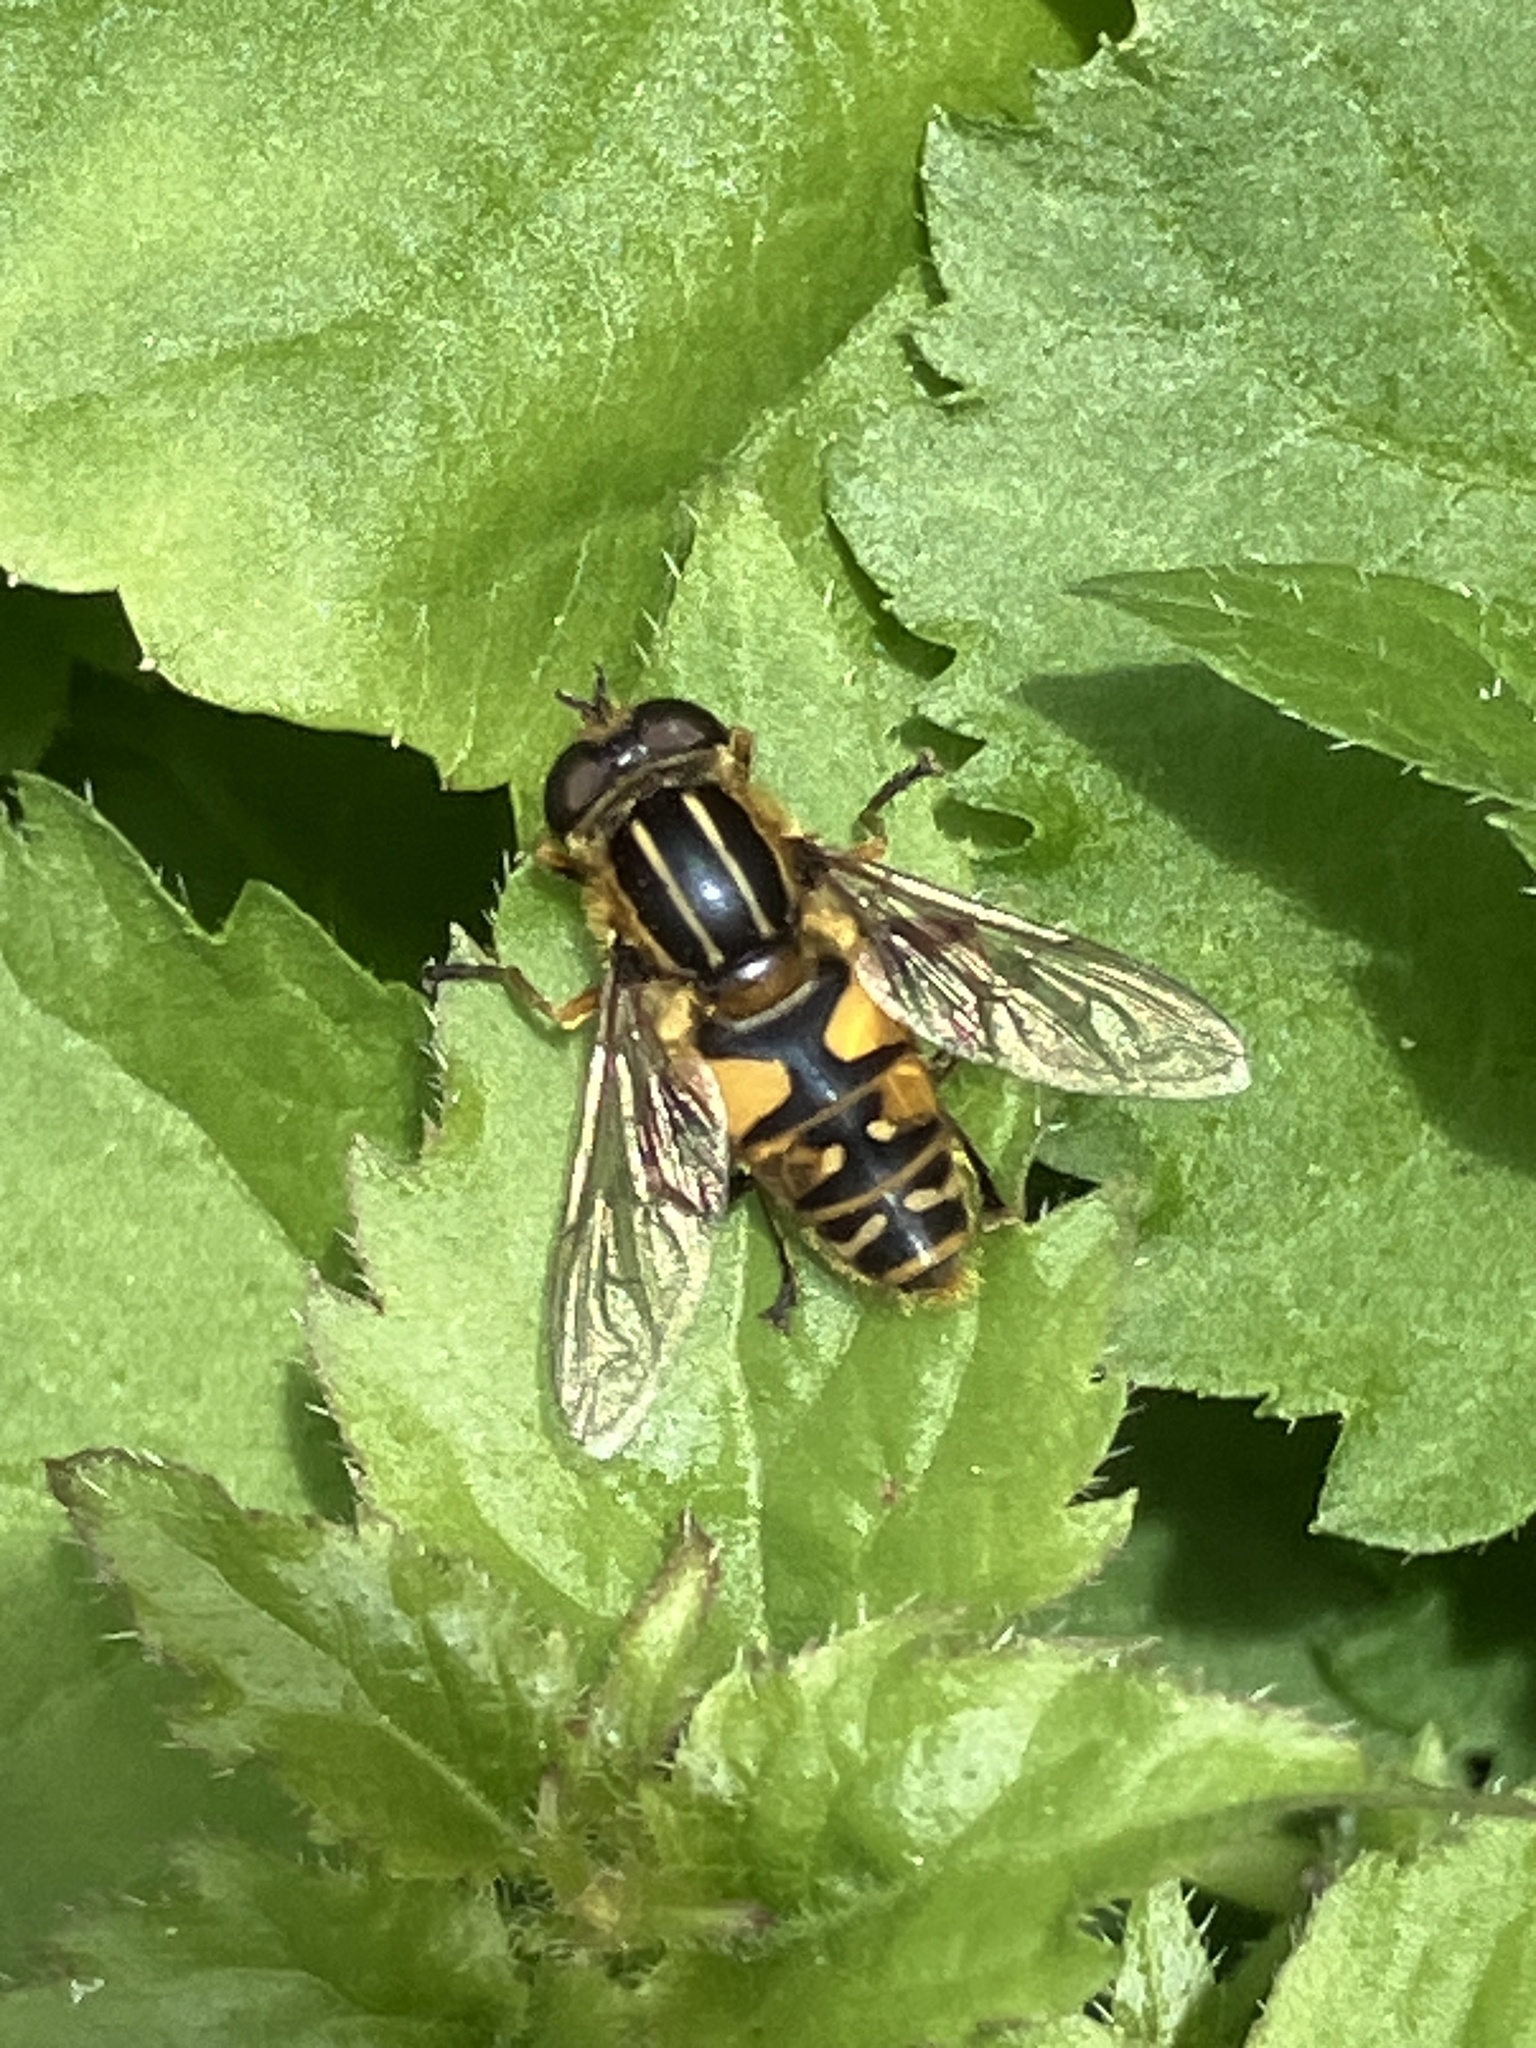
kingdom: Animalia
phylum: Arthropoda
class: Insecta
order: Diptera
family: Syrphidae
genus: Helophilus
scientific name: Helophilus pendulus
